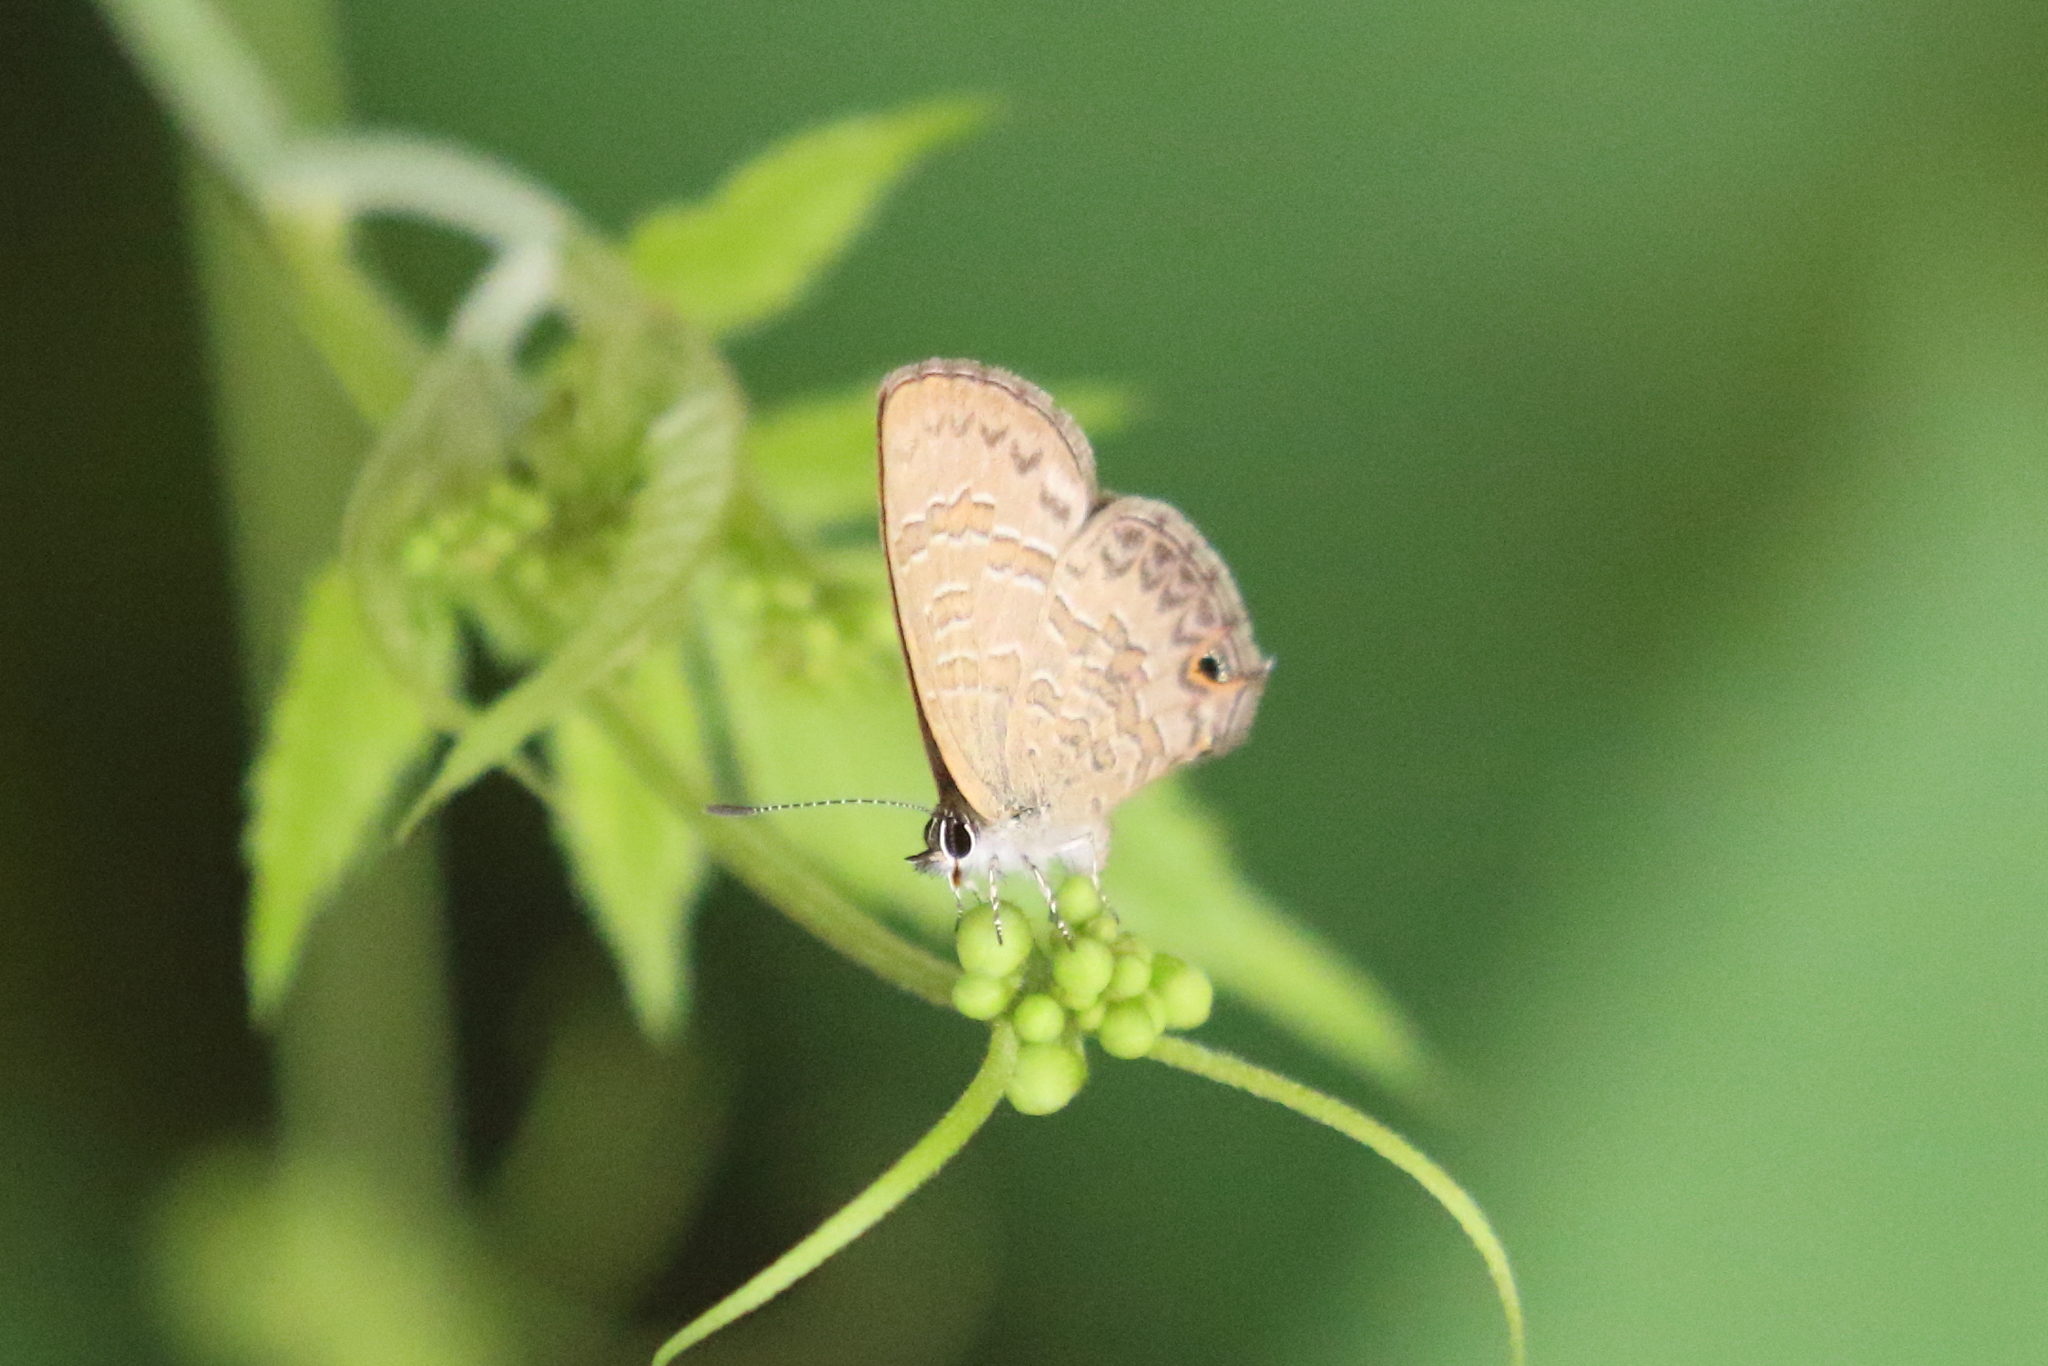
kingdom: Animalia
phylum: Arthropoda
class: Insecta
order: Lepidoptera
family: Lycaenidae
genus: Prosotas
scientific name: Prosotas felderi
